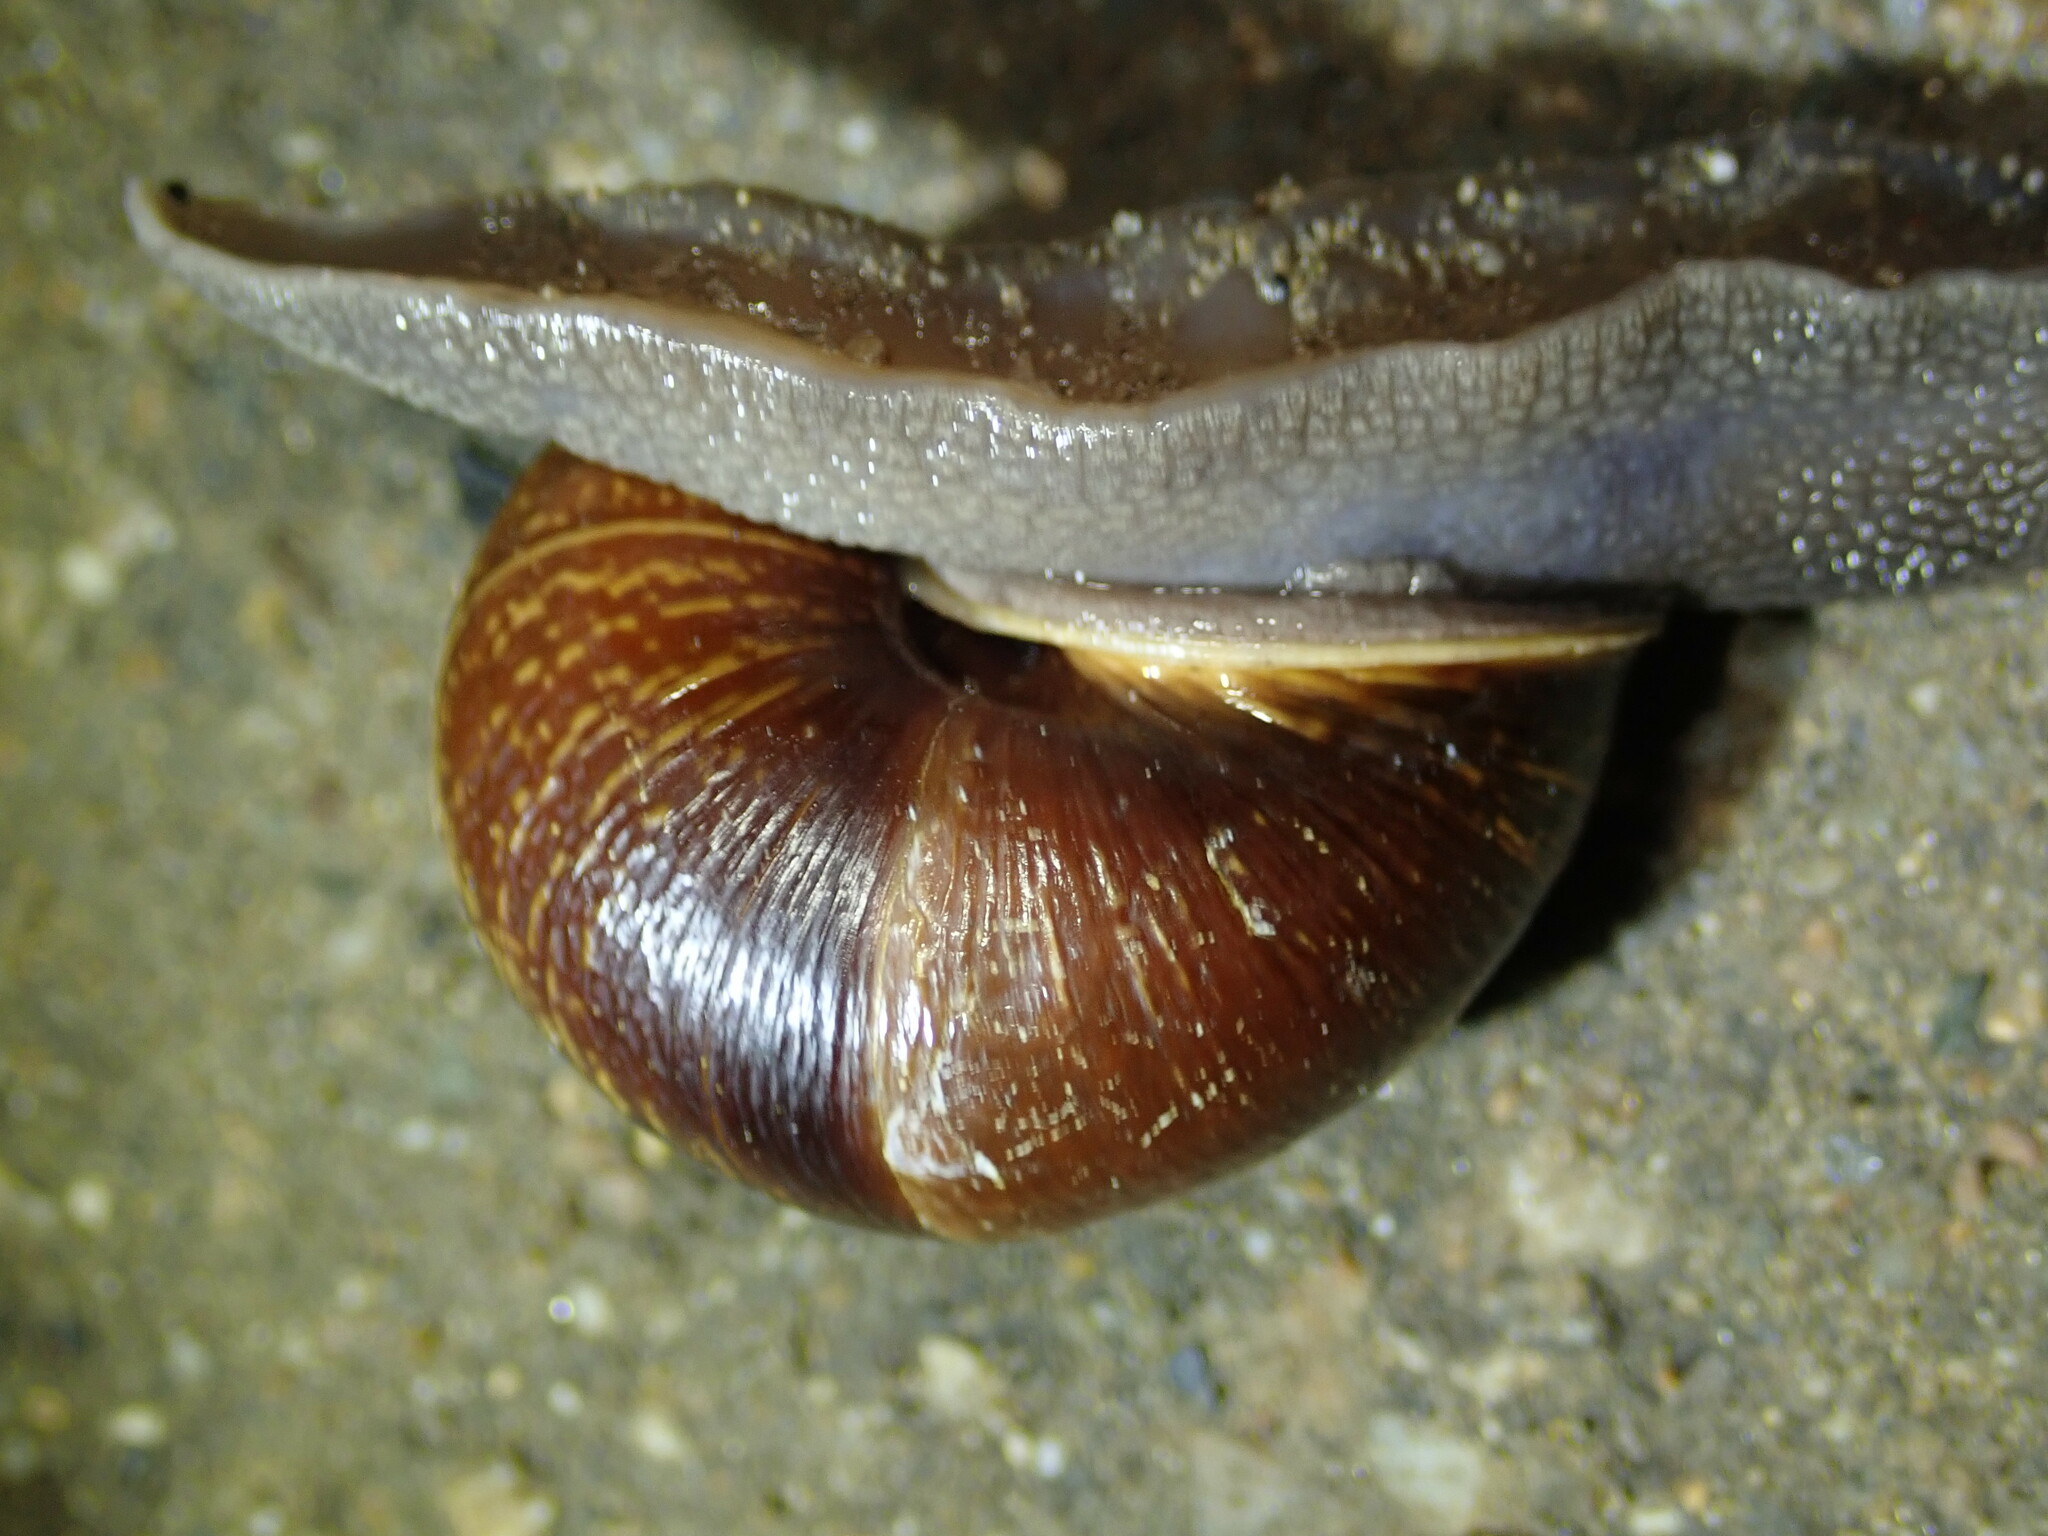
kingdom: Animalia
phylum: Mollusca
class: Gastropoda
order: Stylommatophora
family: Xanthonychidae
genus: Helminthoglypta
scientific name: Helminthoglypta arrosa
